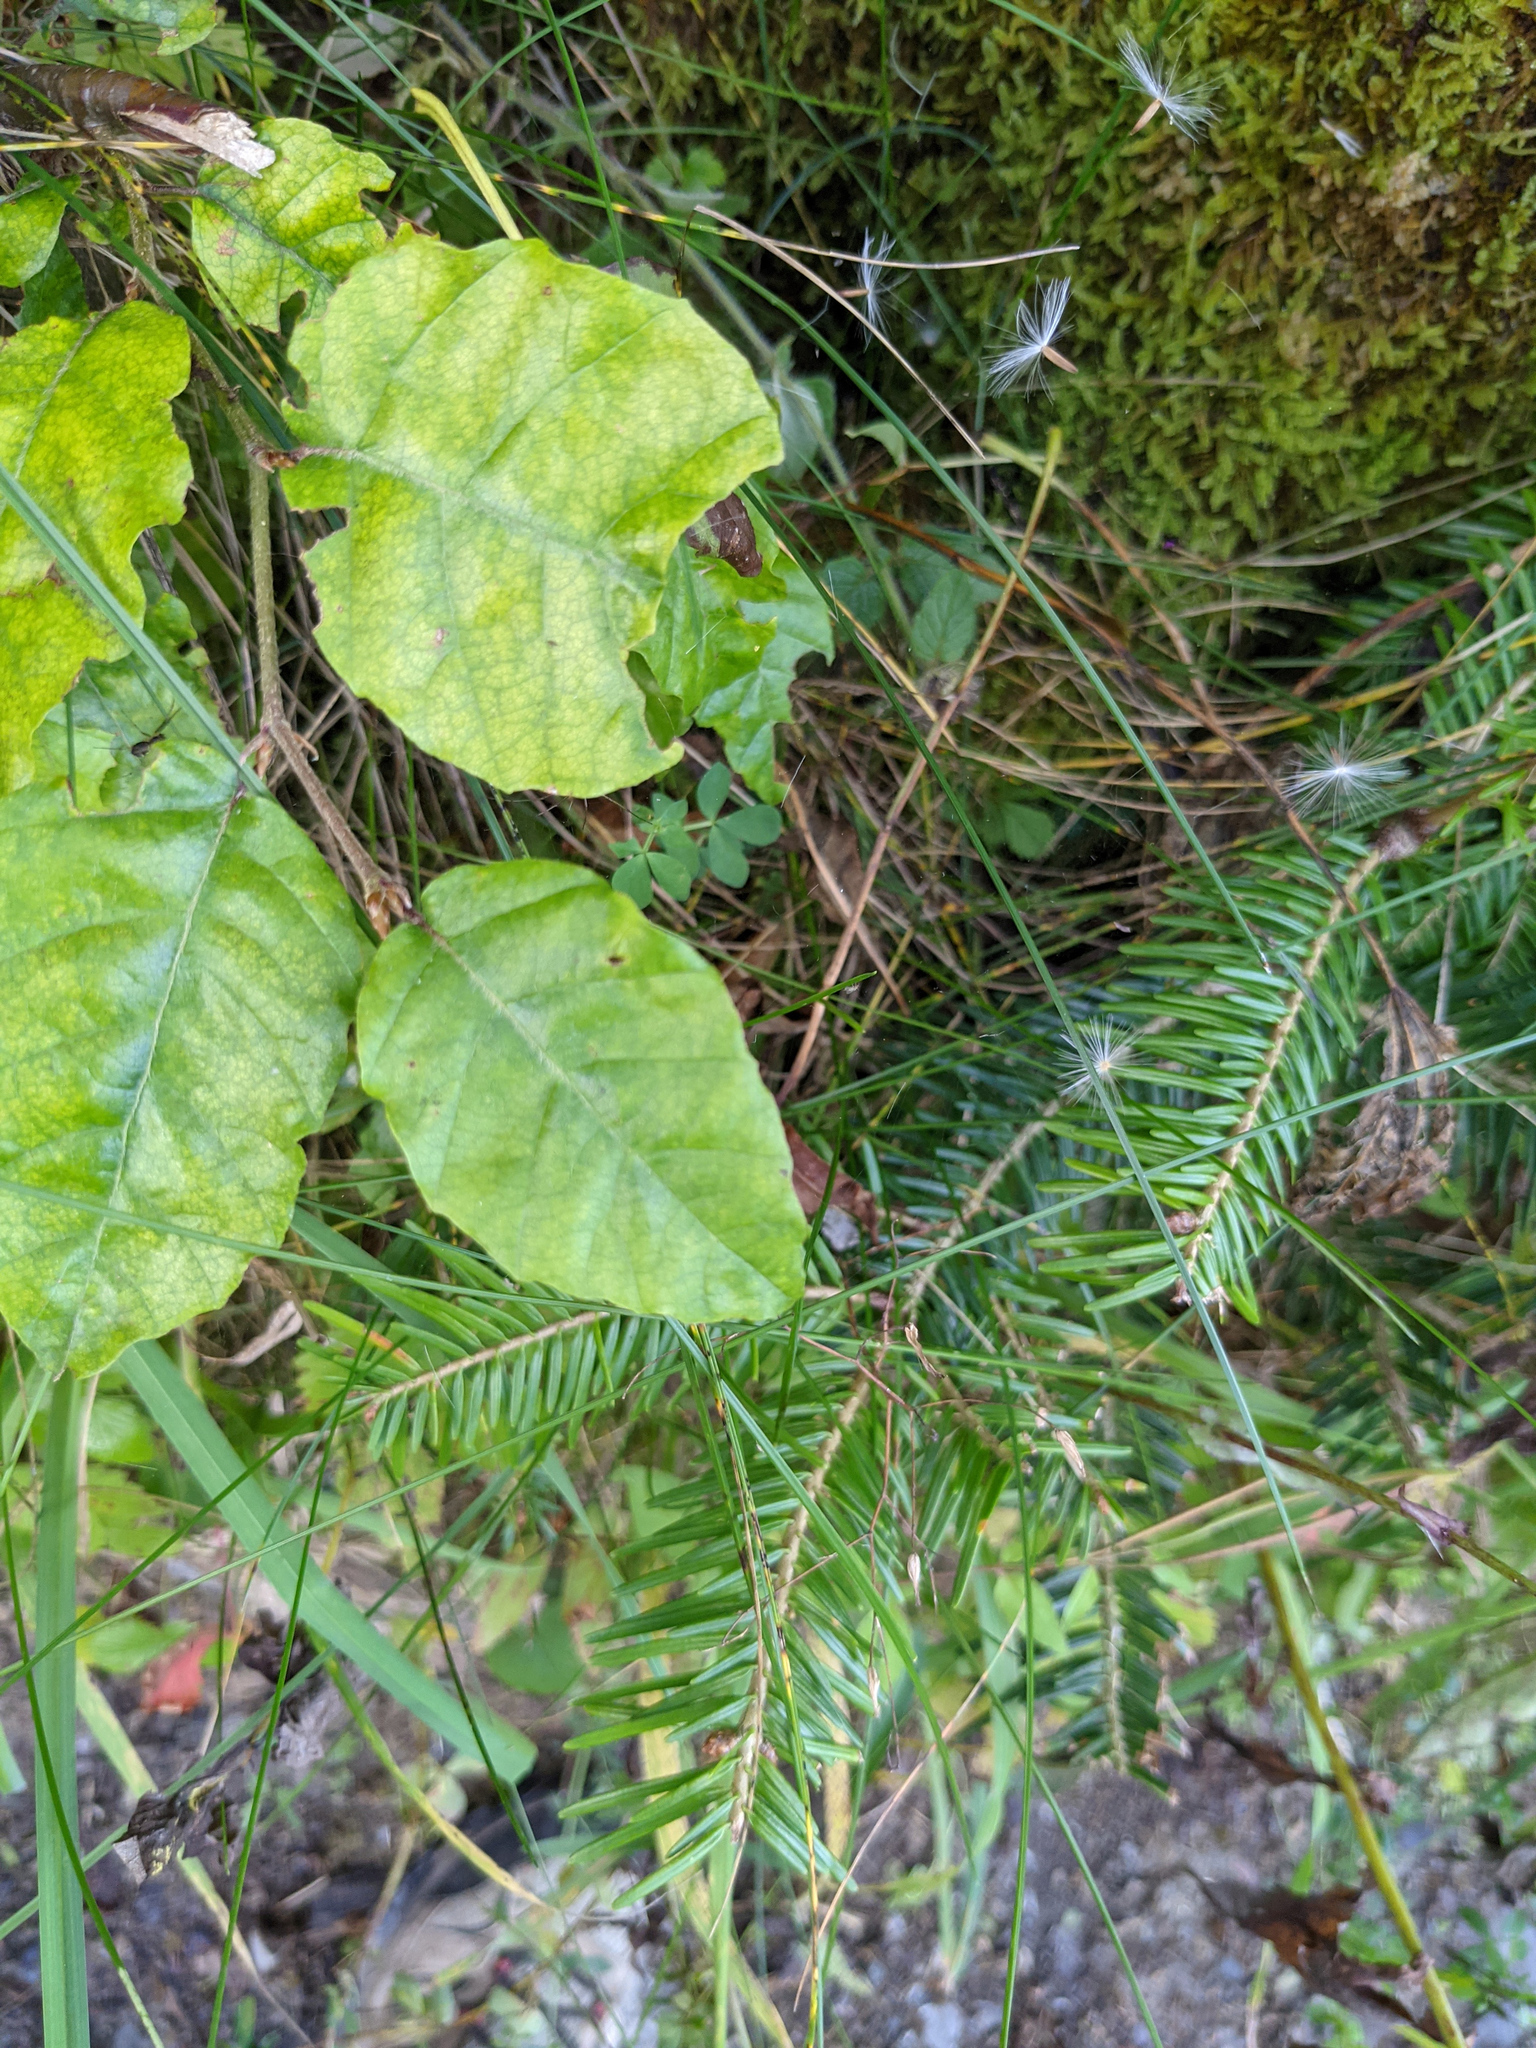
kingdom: Plantae
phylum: Tracheophyta
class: Magnoliopsida
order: Fagales
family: Fagaceae
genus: Fagus
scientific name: Fagus sylvatica
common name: Beech
